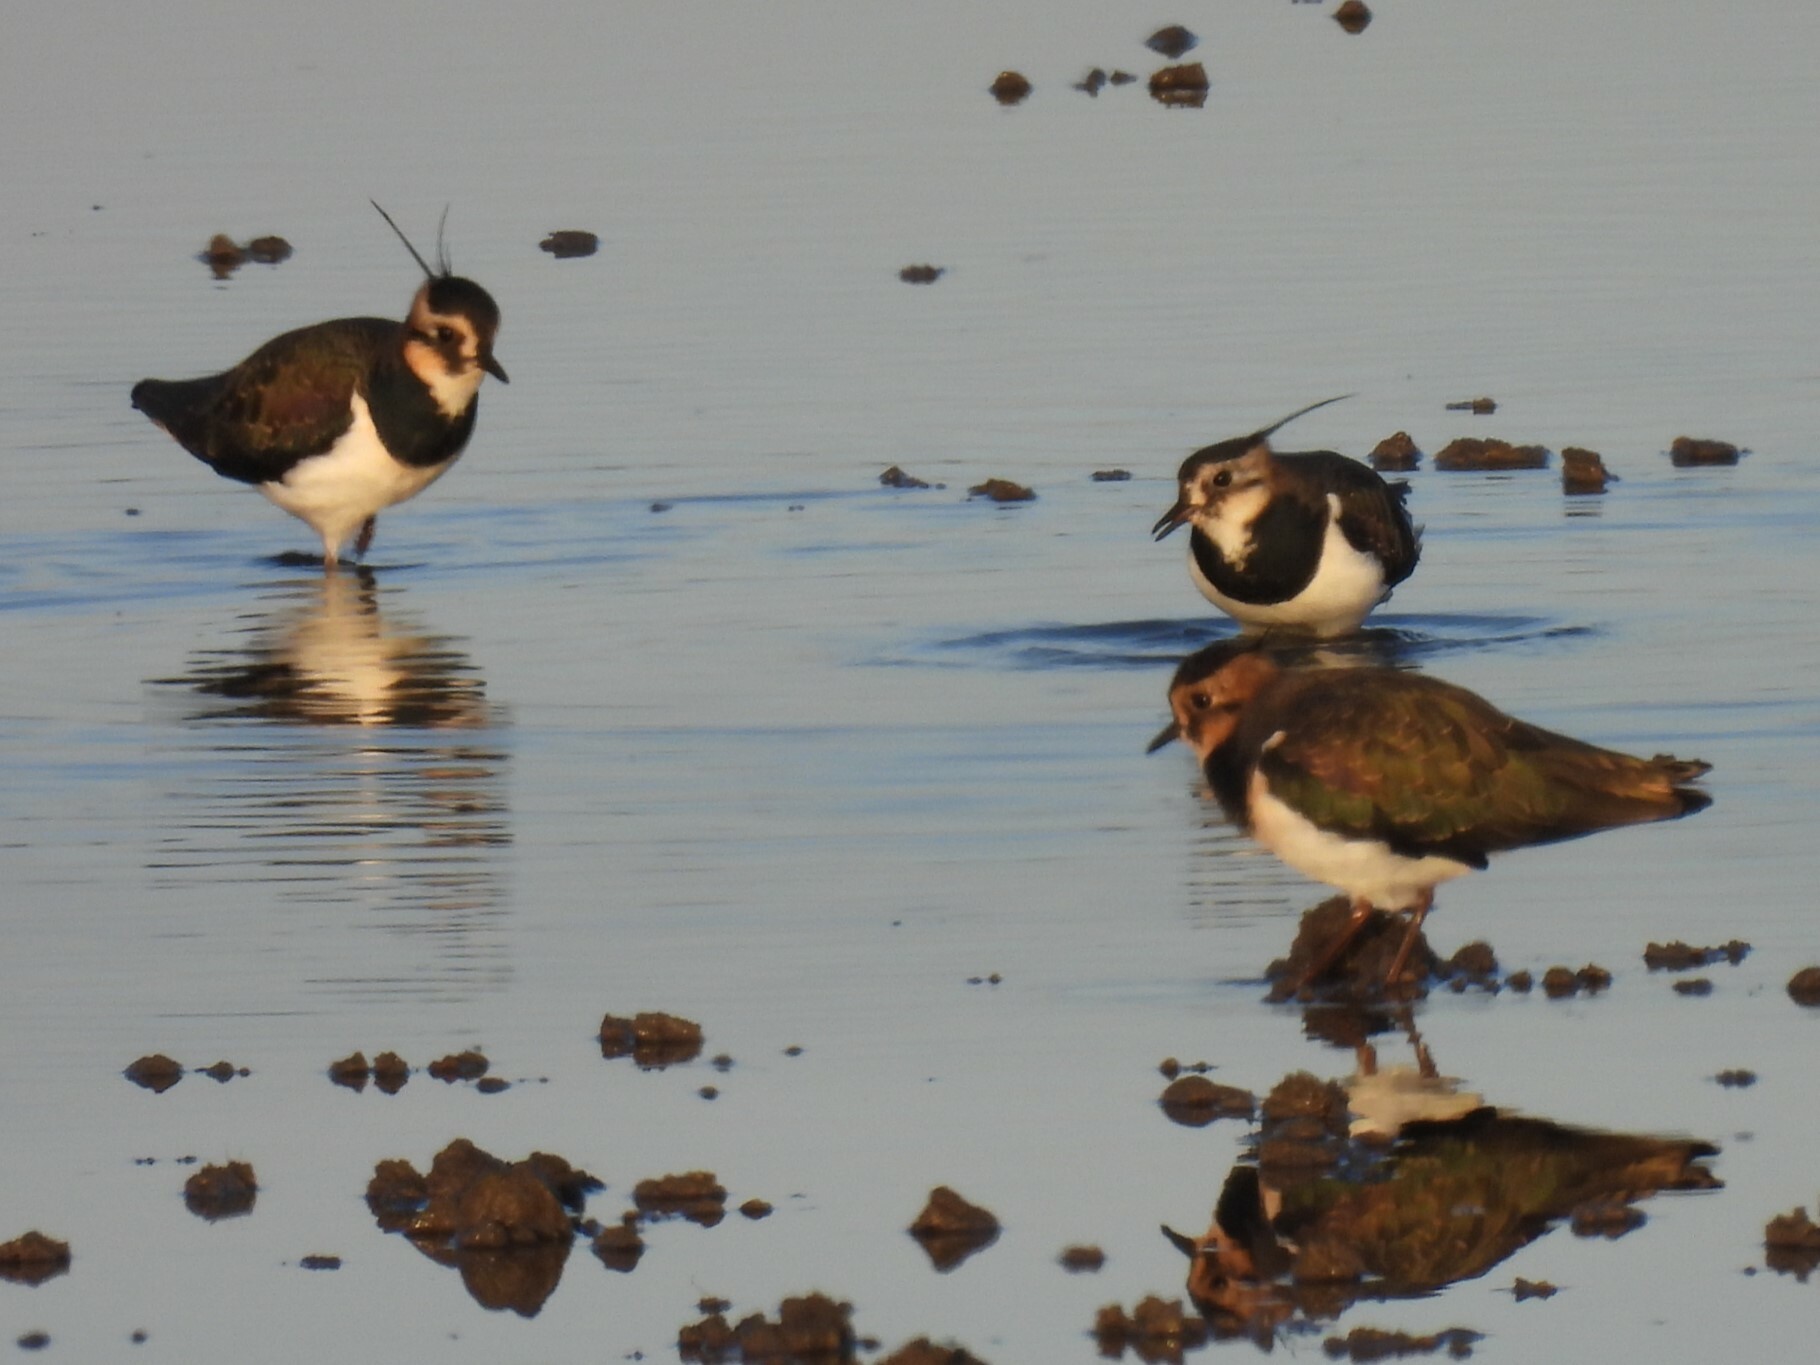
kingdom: Animalia
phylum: Chordata
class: Aves
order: Charadriiformes
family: Charadriidae
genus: Vanellus
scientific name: Vanellus vanellus
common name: Northern lapwing
